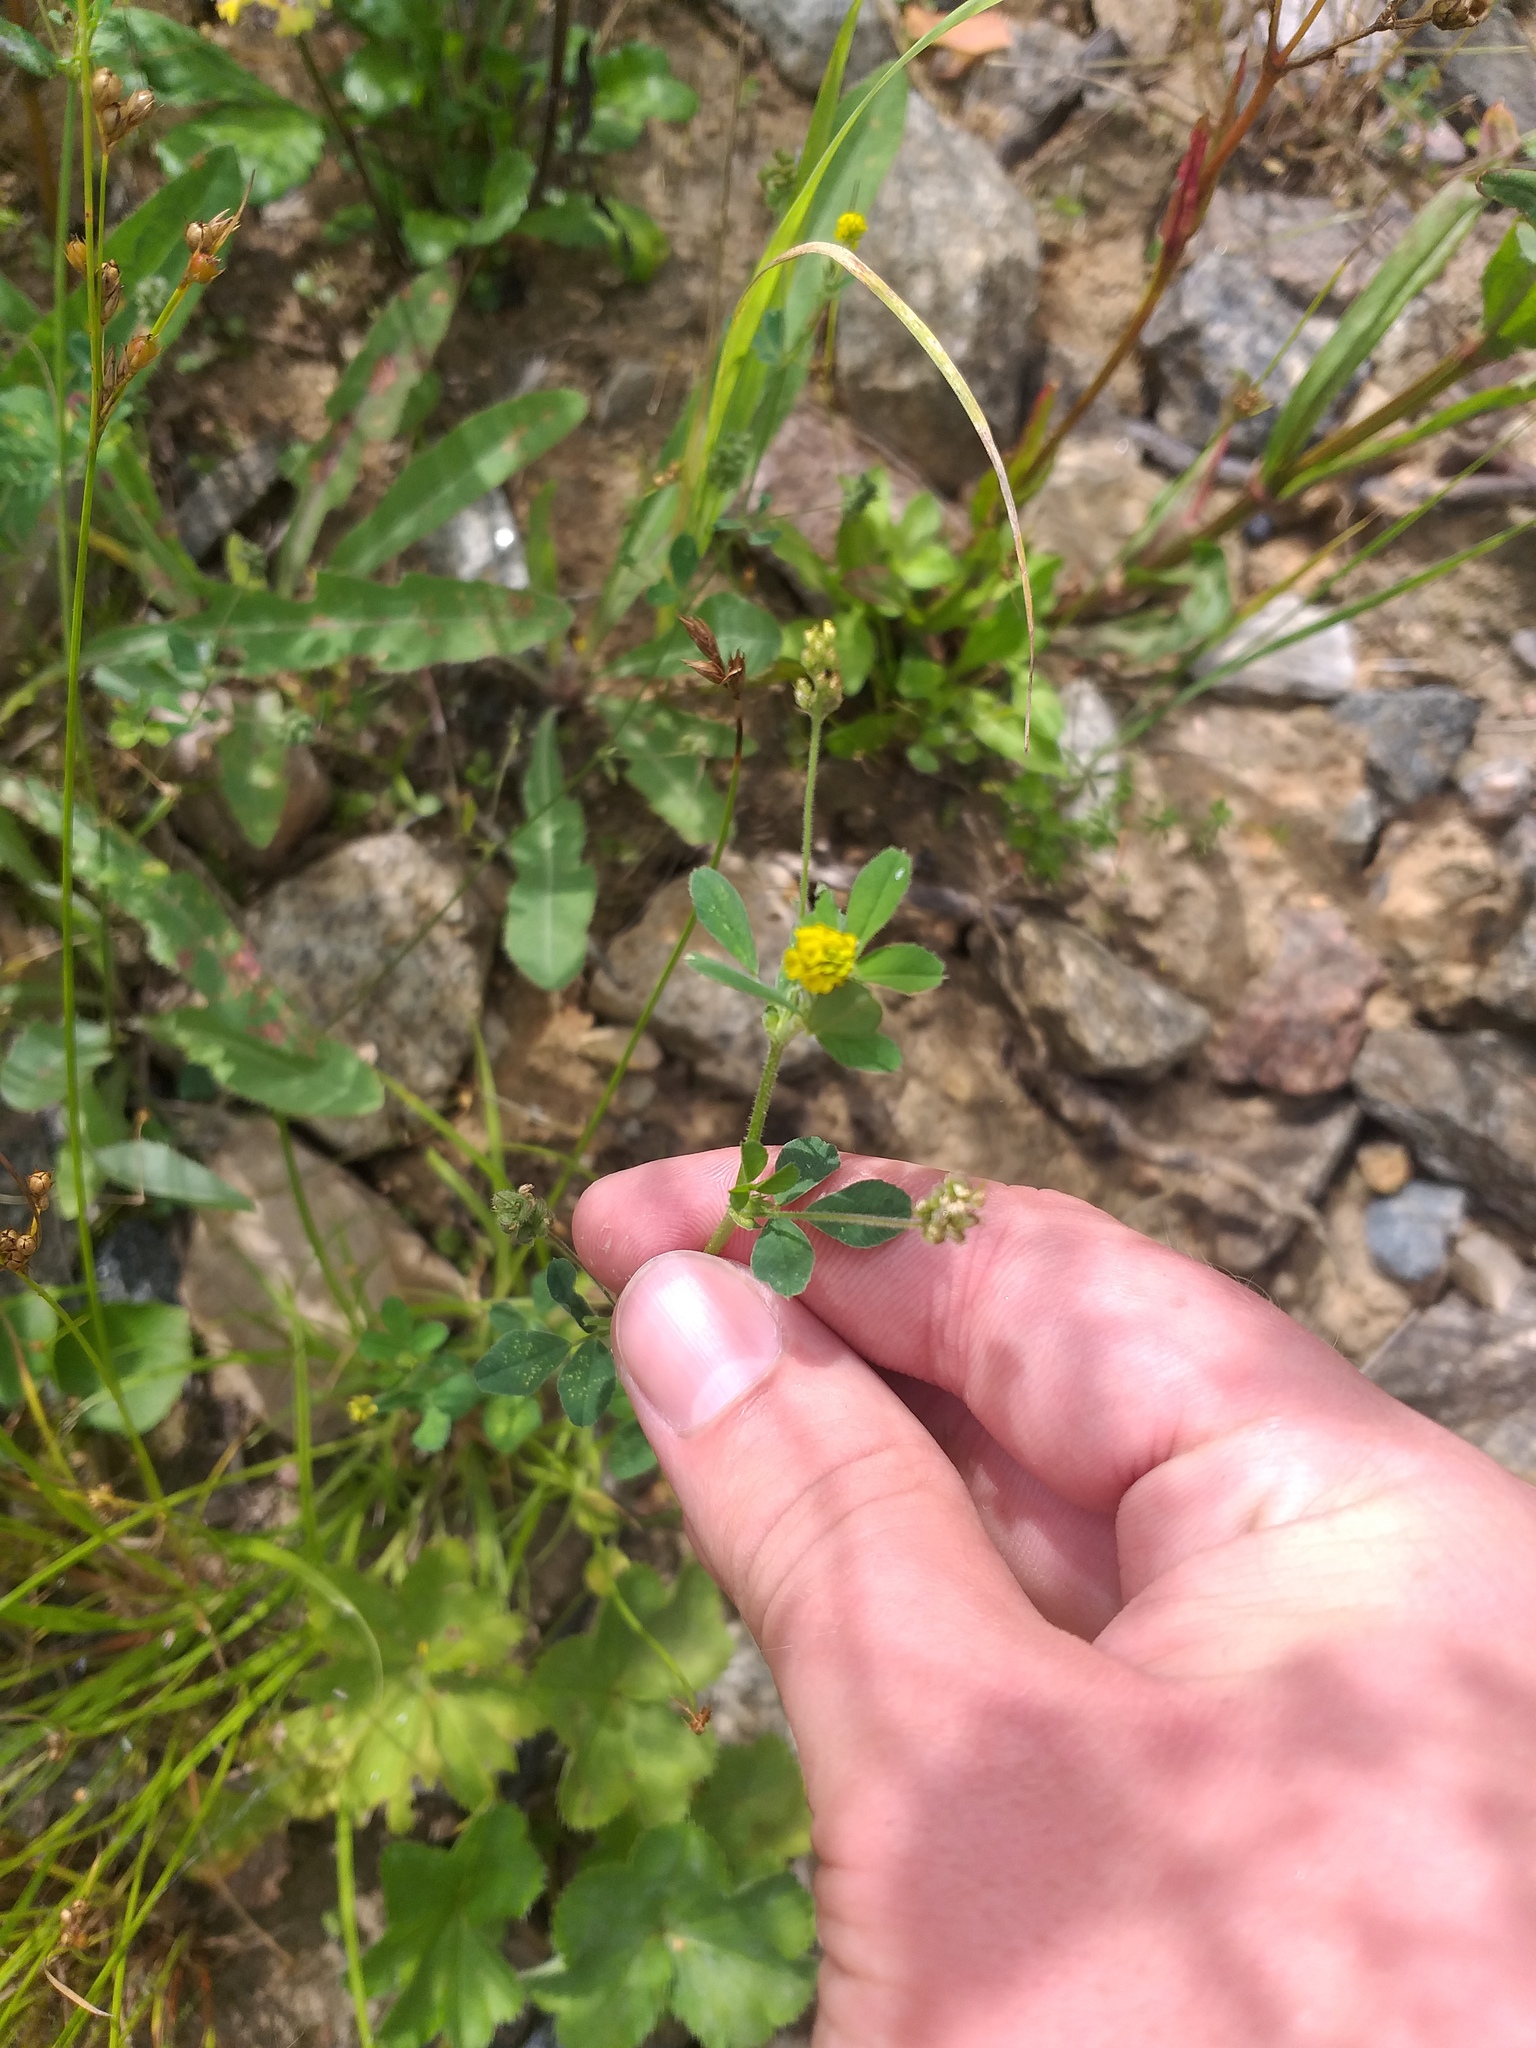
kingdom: Plantae
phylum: Tracheophyta
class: Magnoliopsida
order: Fabales
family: Fabaceae
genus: Medicago
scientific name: Medicago lupulina
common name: Black medick
